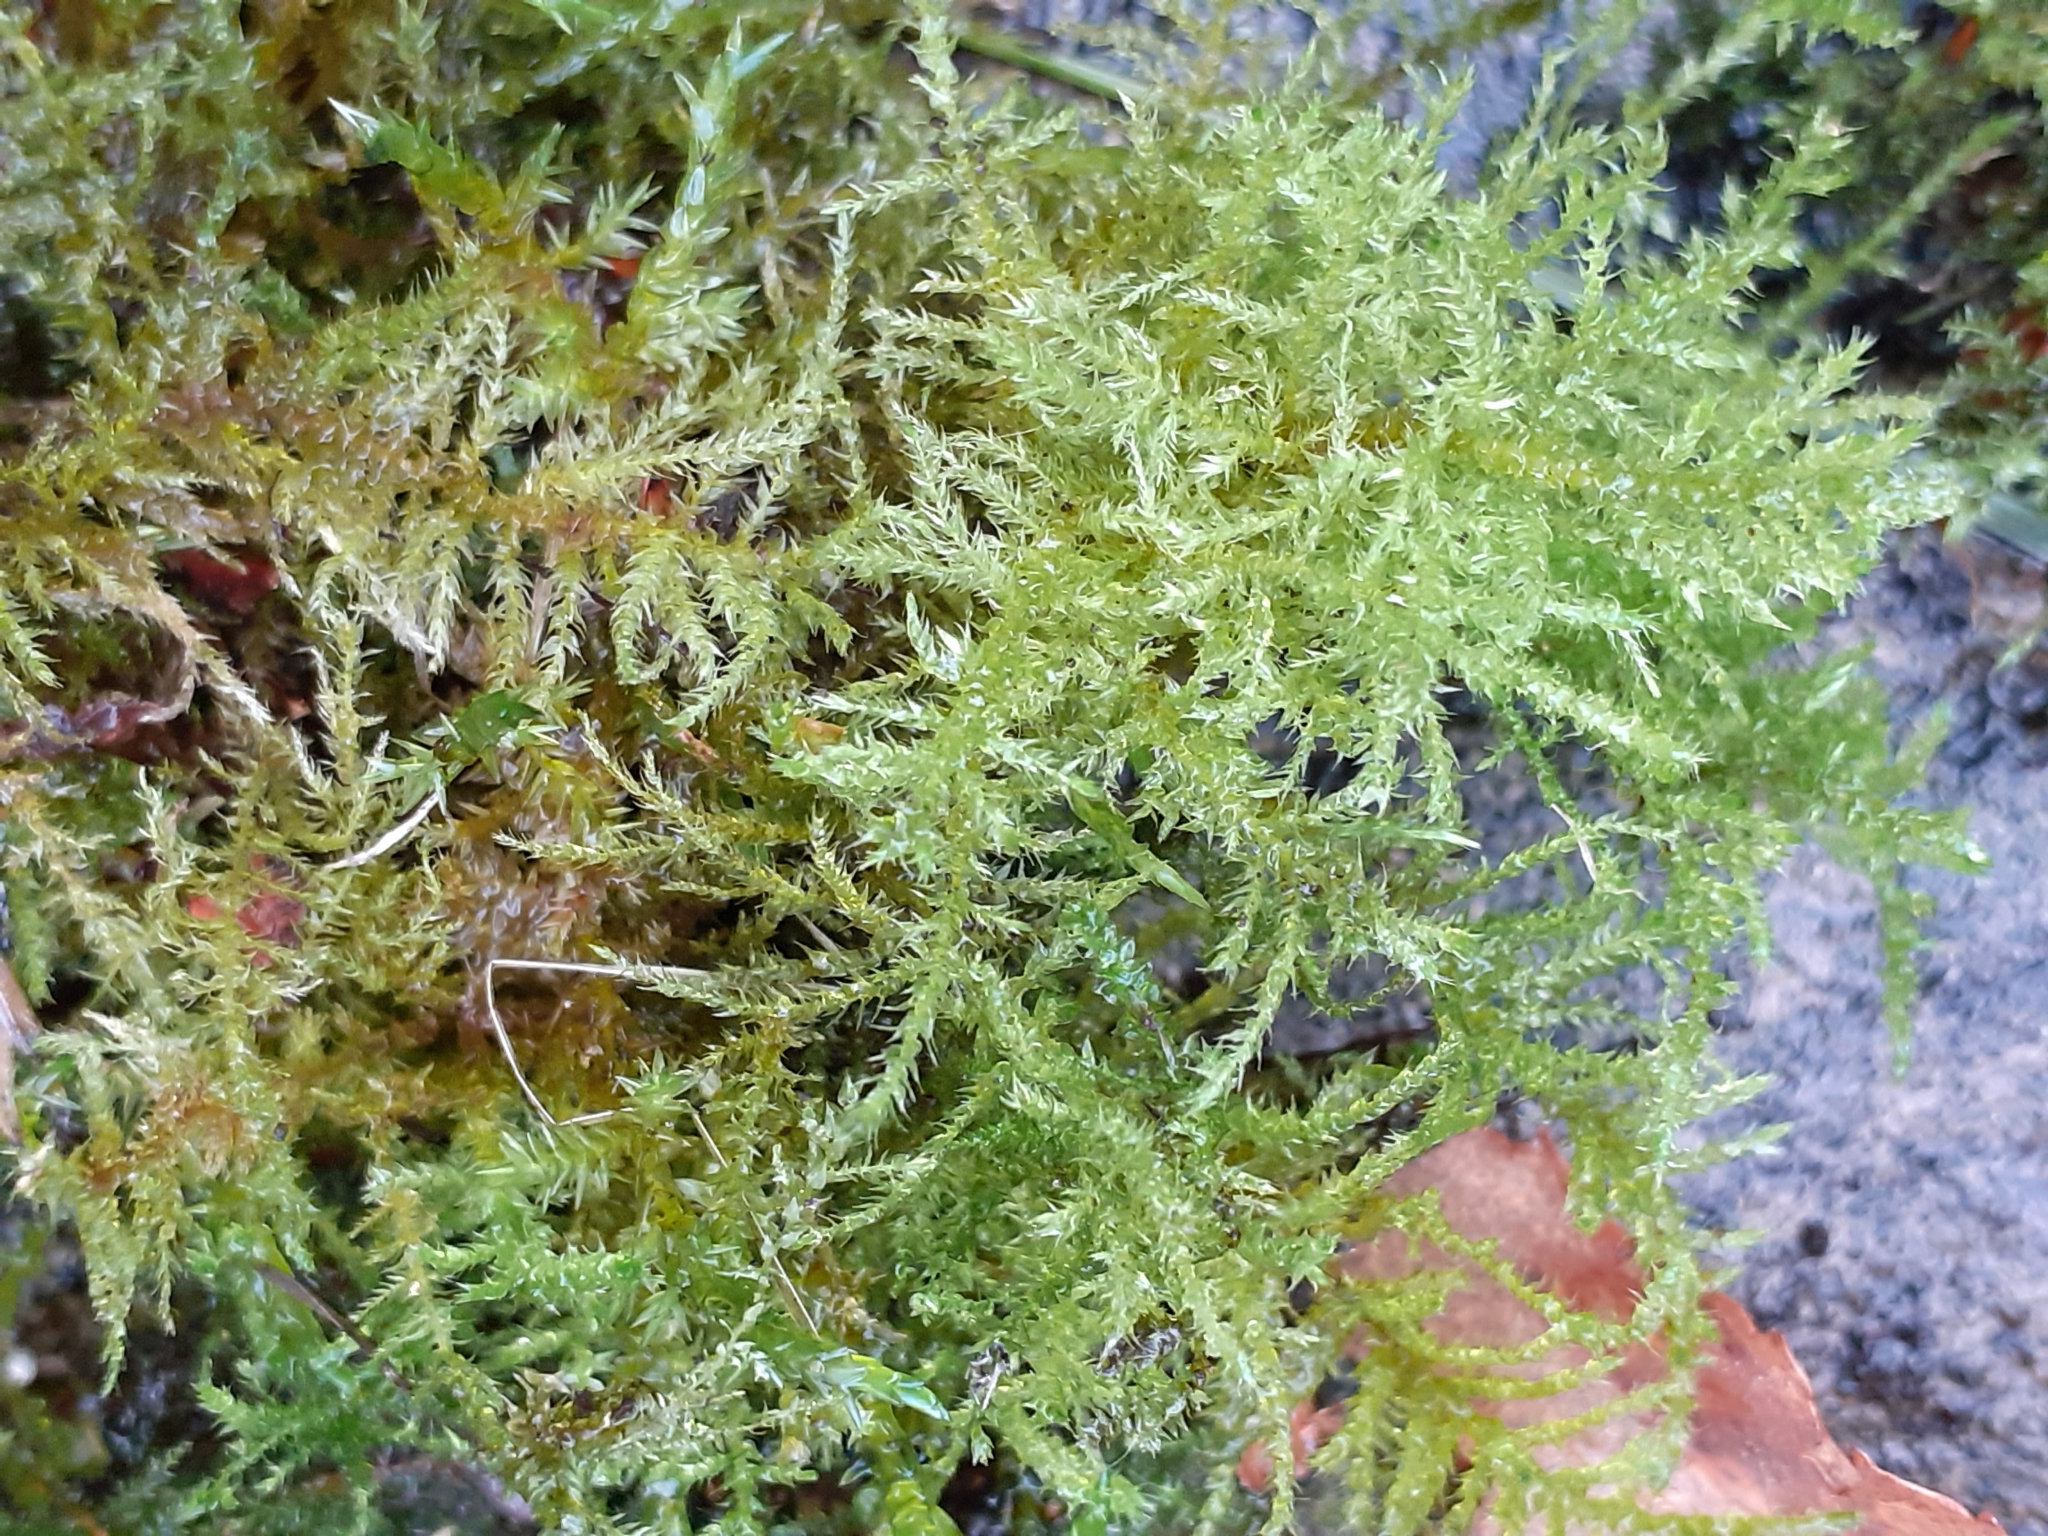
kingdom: Plantae
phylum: Bryophyta
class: Bryopsida
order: Hypnales
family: Brachytheciaceae
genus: Kindbergia
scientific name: Kindbergia praelonga
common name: Slender beaked moss
